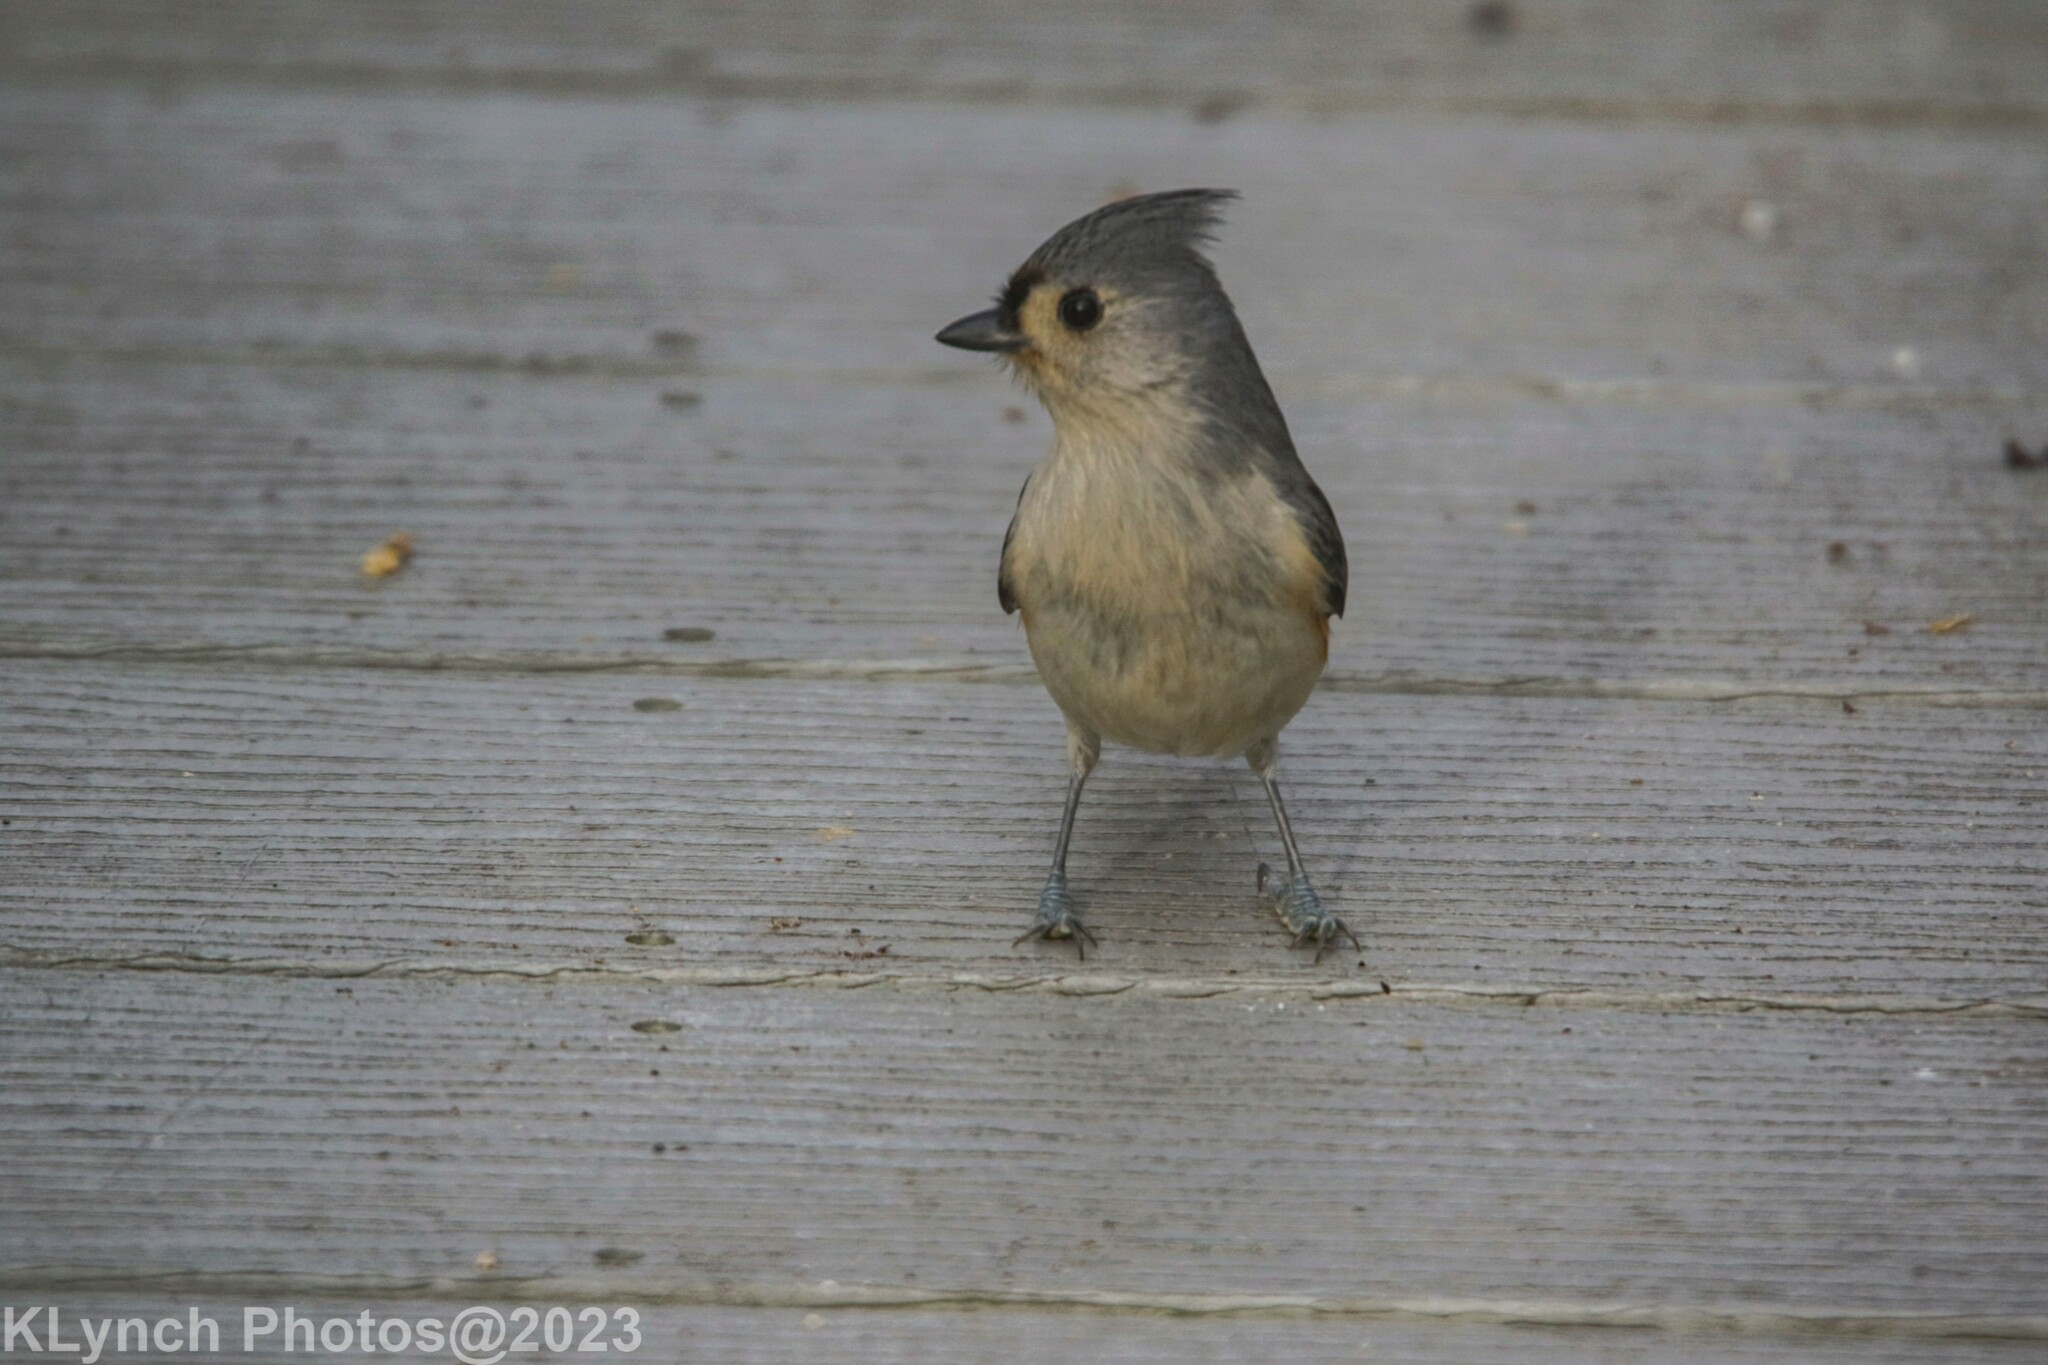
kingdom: Animalia
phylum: Chordata
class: Aves
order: Passeriformes
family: Paridae
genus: Baeolophus
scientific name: Baeolophus bicolor
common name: Tufted titmouse
